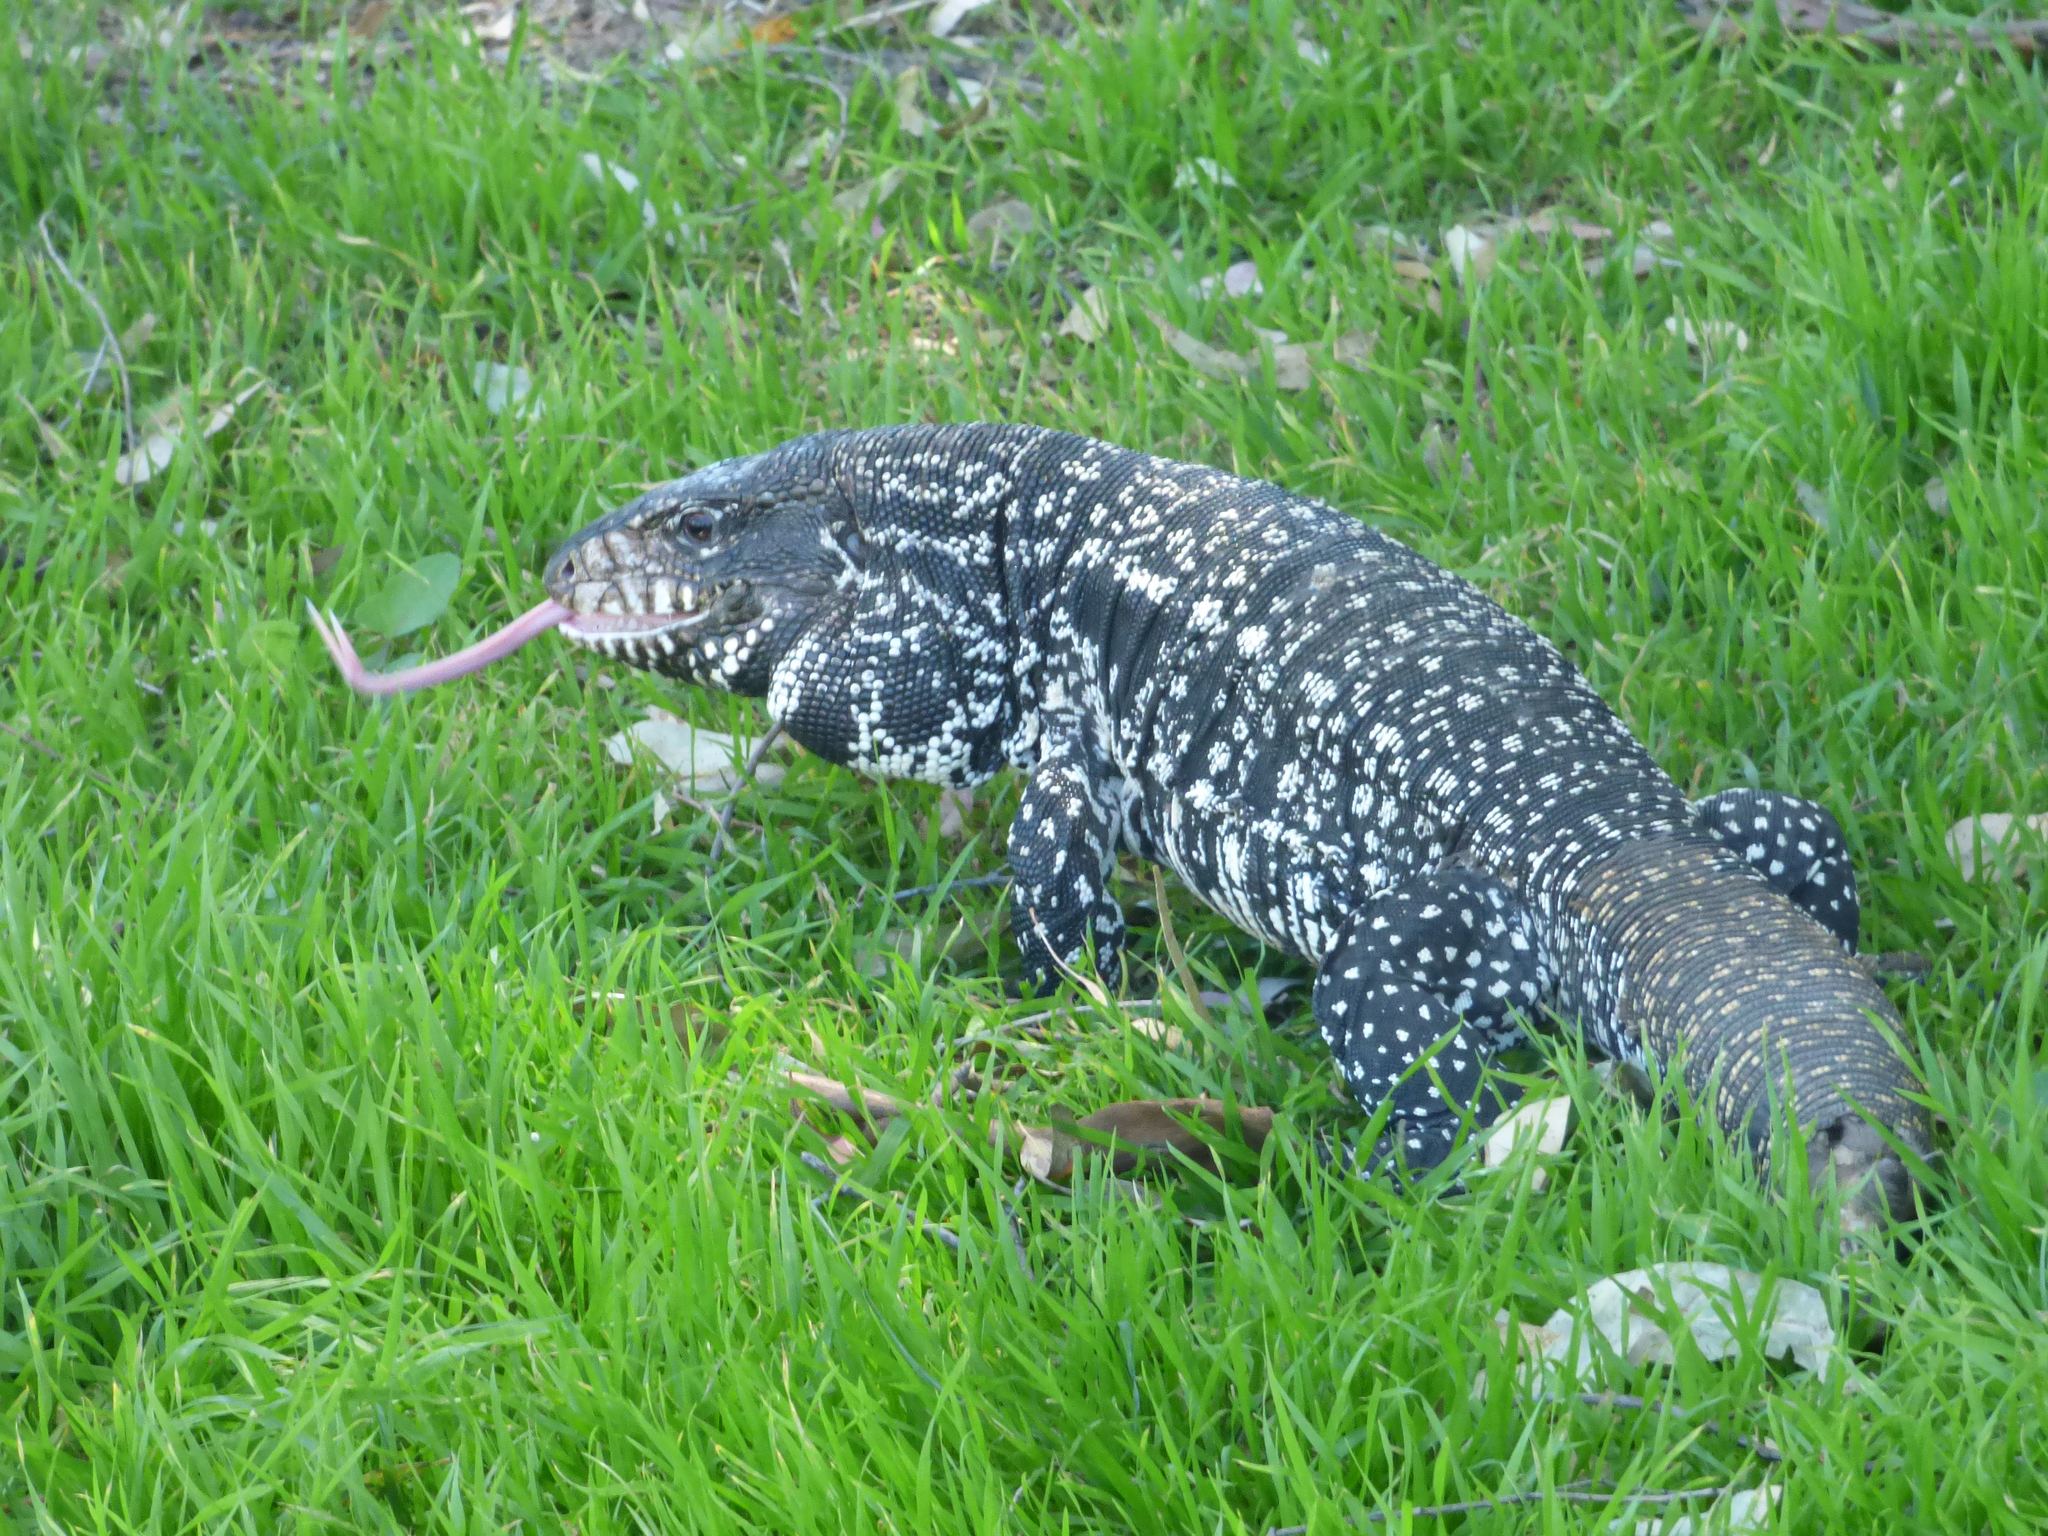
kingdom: Animalia
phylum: Chordata
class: Squamata
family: Teiidae
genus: Salvator
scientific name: Salvator merianae
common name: Argentine black and white tegu
